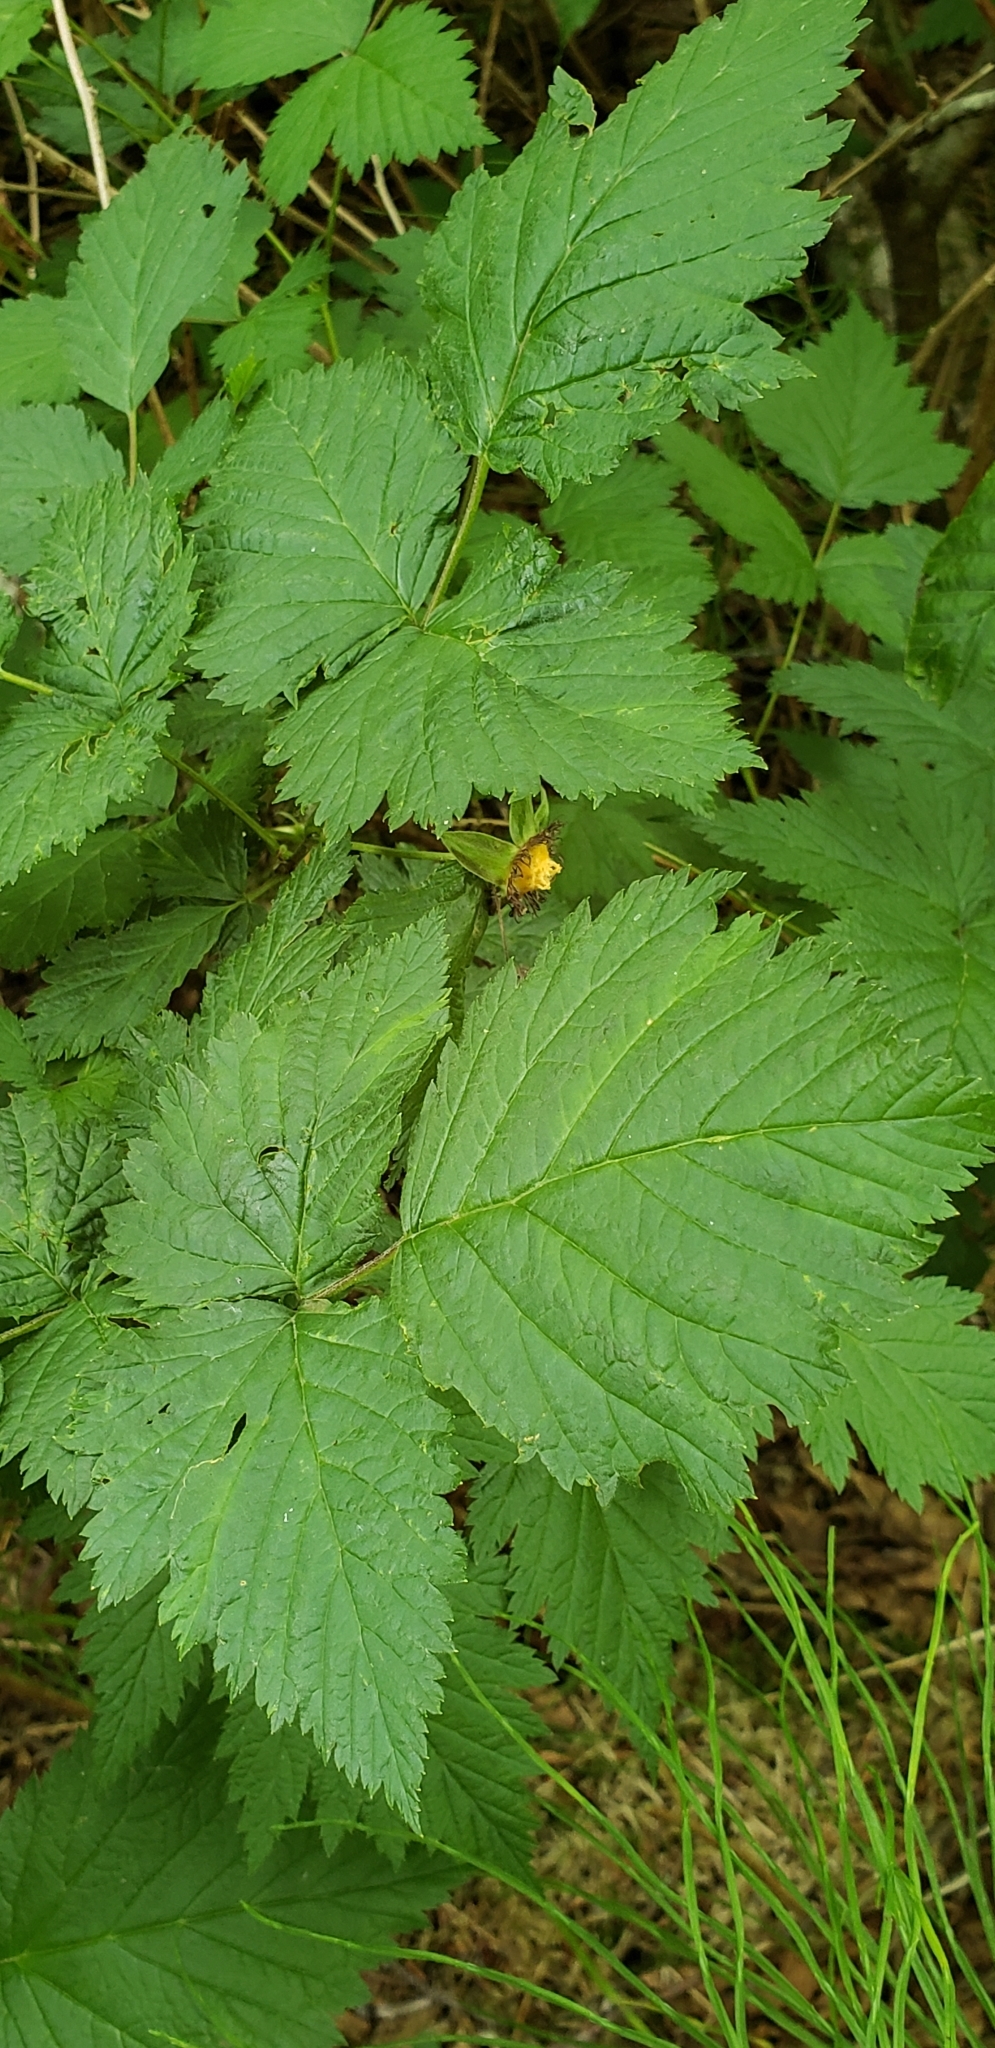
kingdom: Plantae
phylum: Tracheophyta
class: Magnoliopsida
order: Rosales
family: Rosaceae
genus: Rubus
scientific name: Rubus spectabilis
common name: Salmonberry
